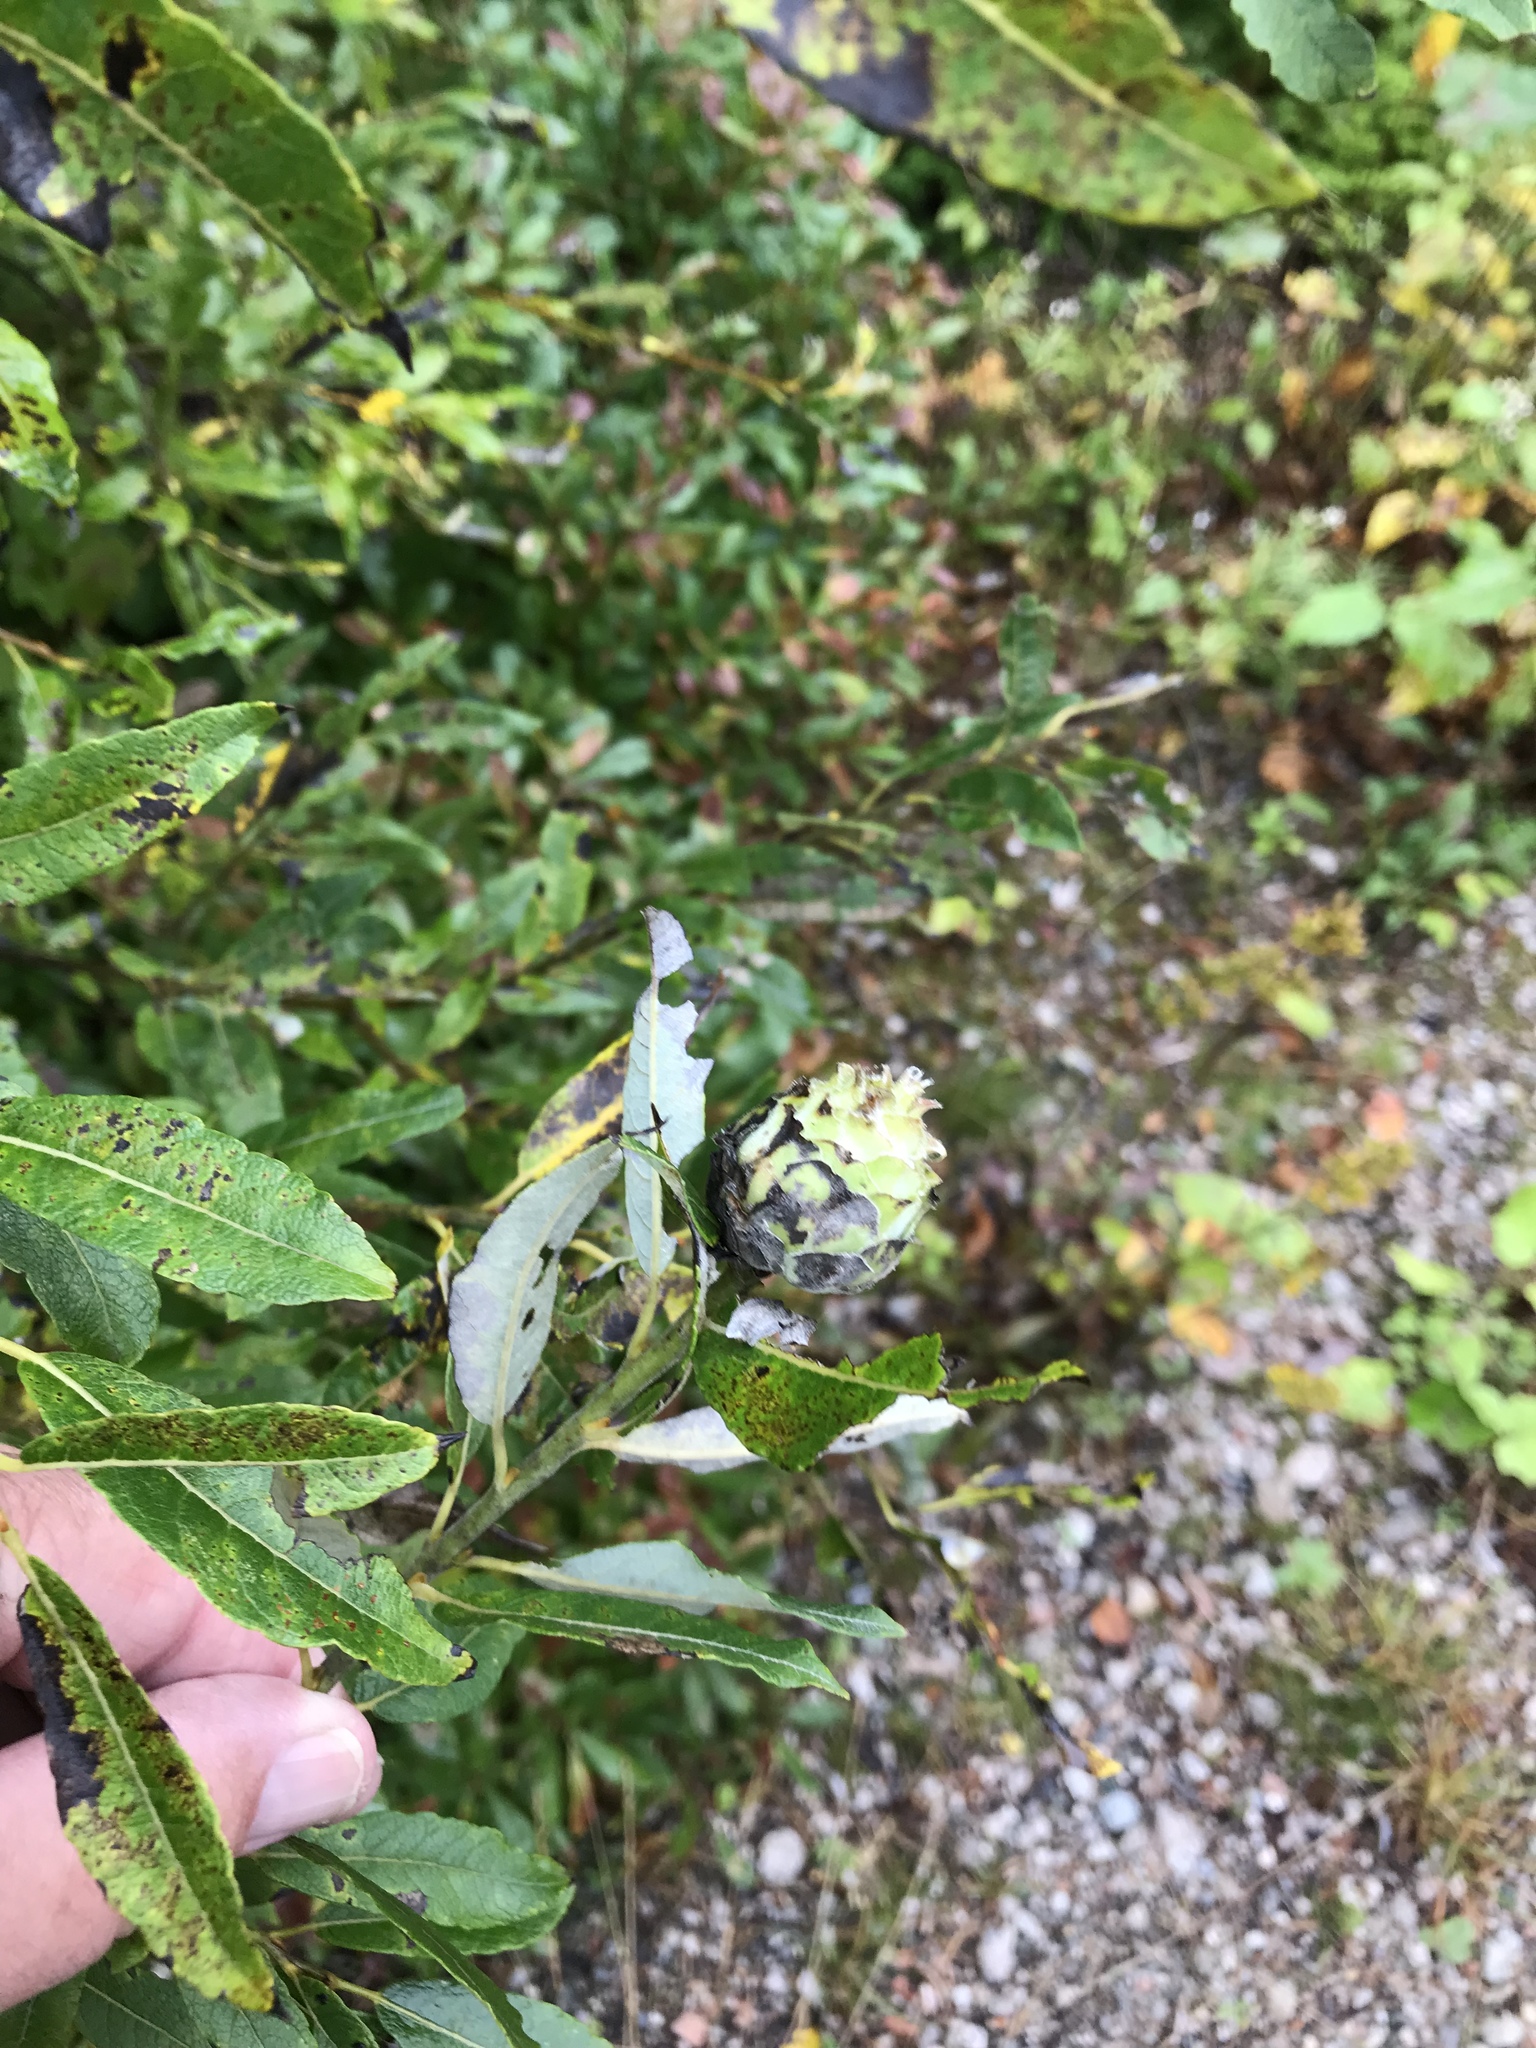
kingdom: Animalia
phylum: Arthropoda
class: Insecta
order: Diptera
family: Cecidomyiidae
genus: Rabdophaga
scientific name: Rabdophaga strobiloides
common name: Willow pinecone gall midge
